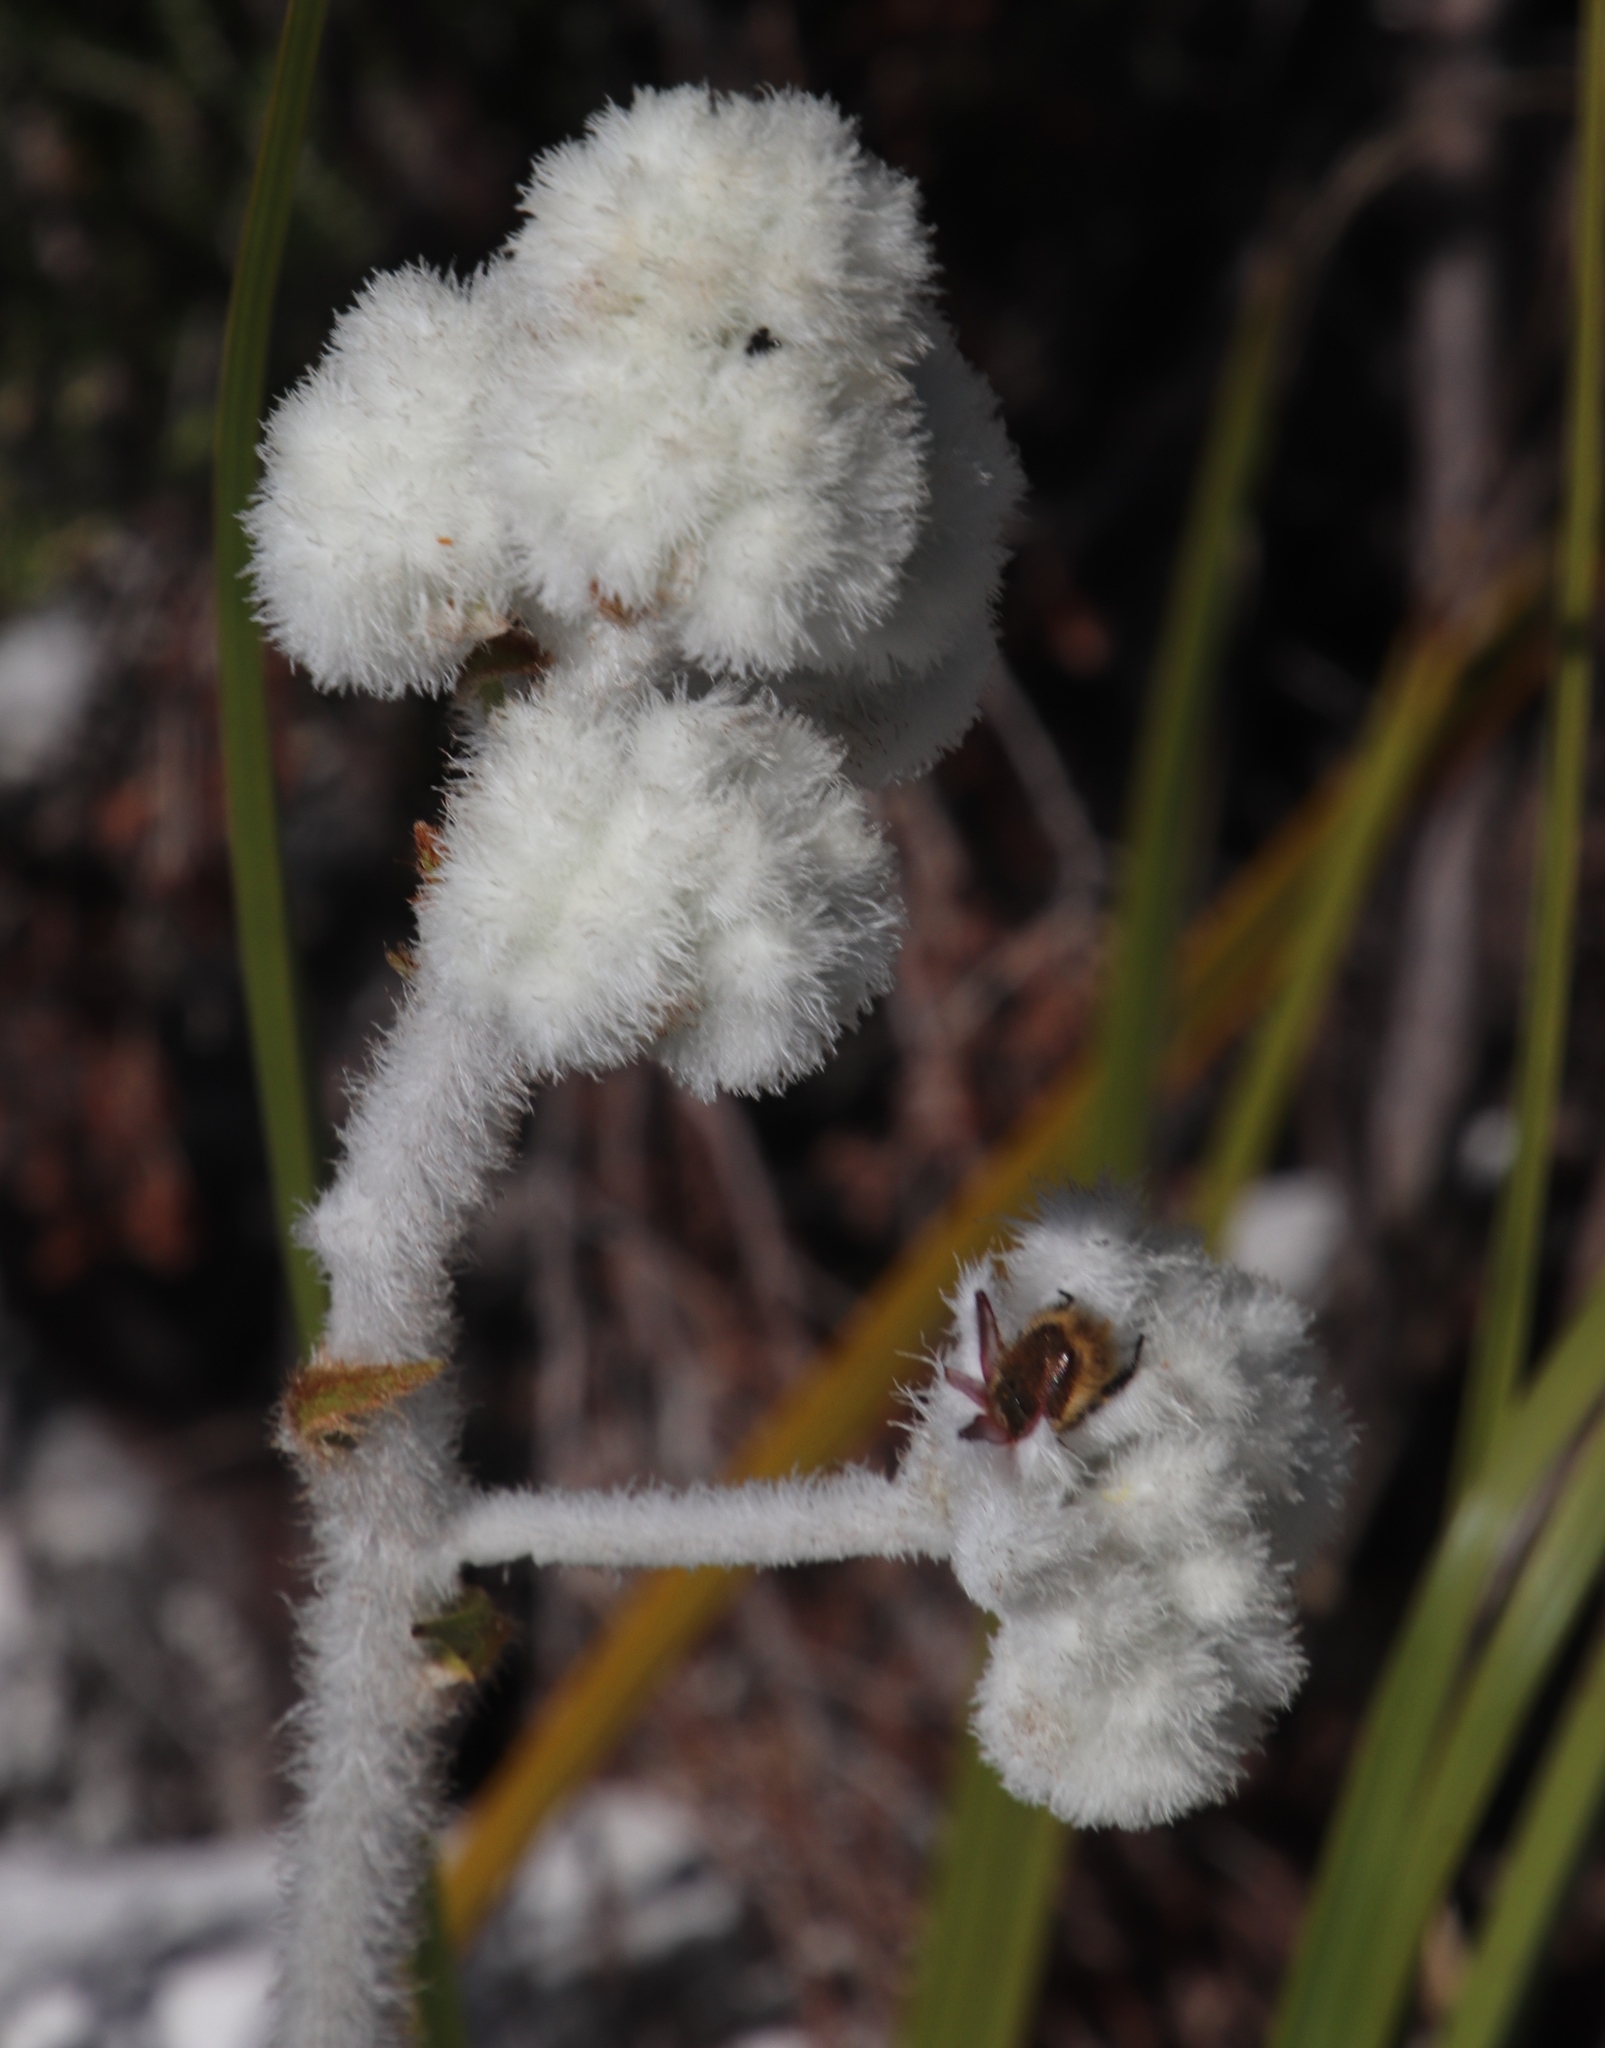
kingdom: Plantae
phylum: Tracheophyta
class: Liliopsida
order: Asparagales
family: Lanariaceae
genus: Lanaria
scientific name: Lanaria lanata
